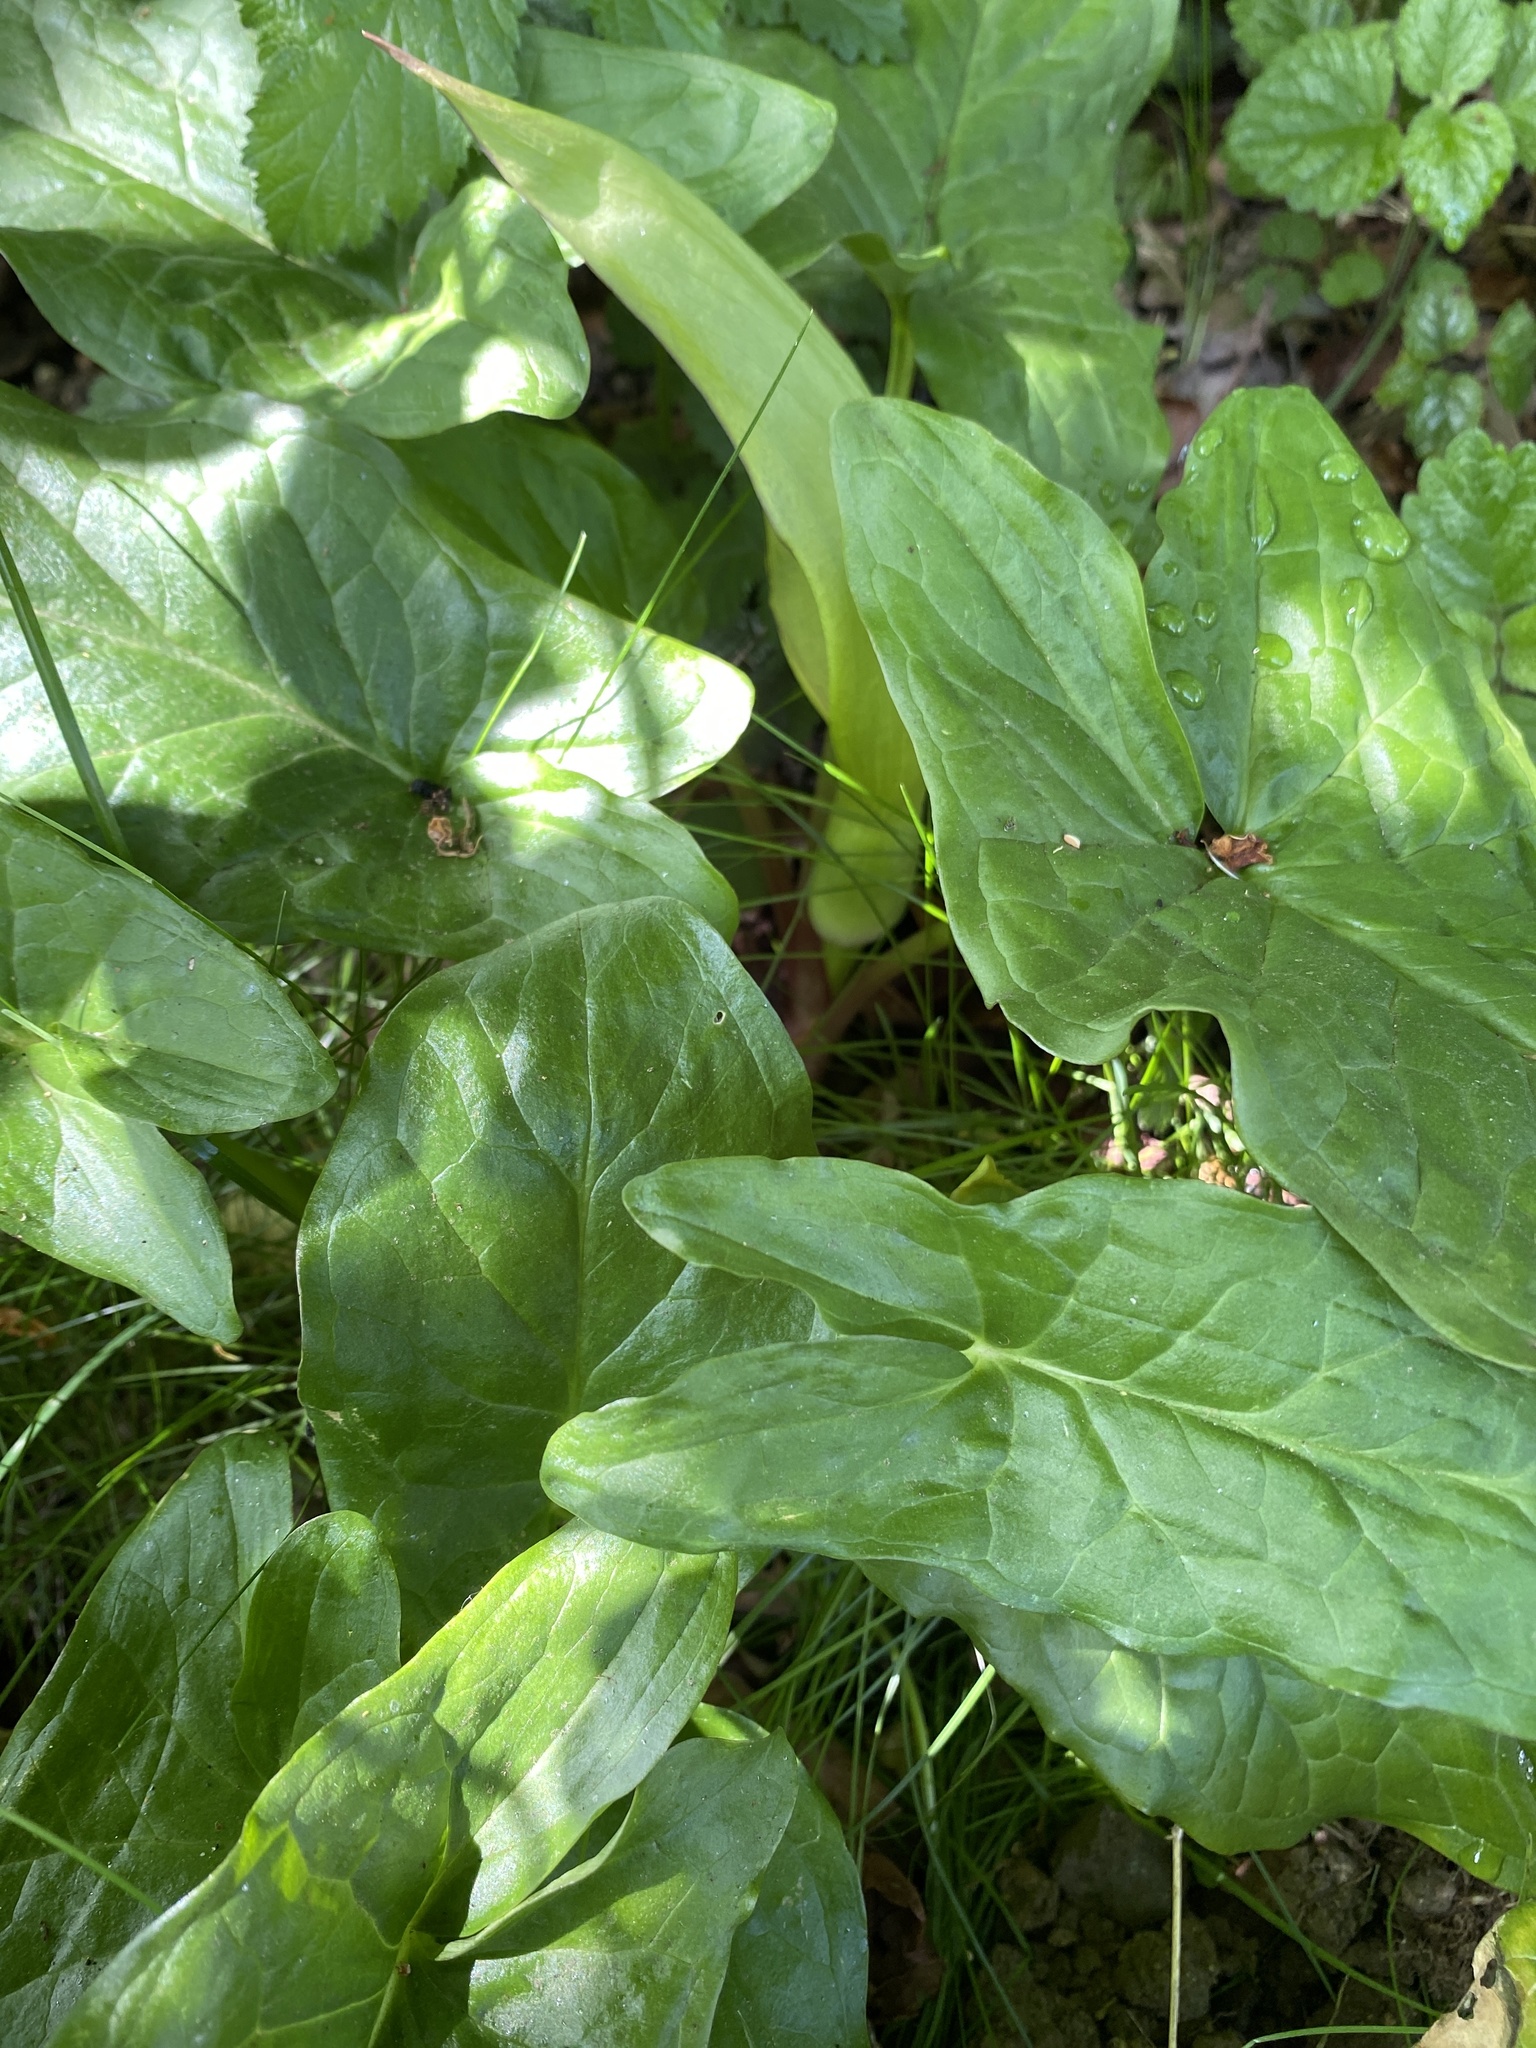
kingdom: Plantae
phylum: Tracheophyta
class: Liliopsida
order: Alismatales
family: Araceae
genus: Arum
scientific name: Arum maculatum
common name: Lords-and-ladies
